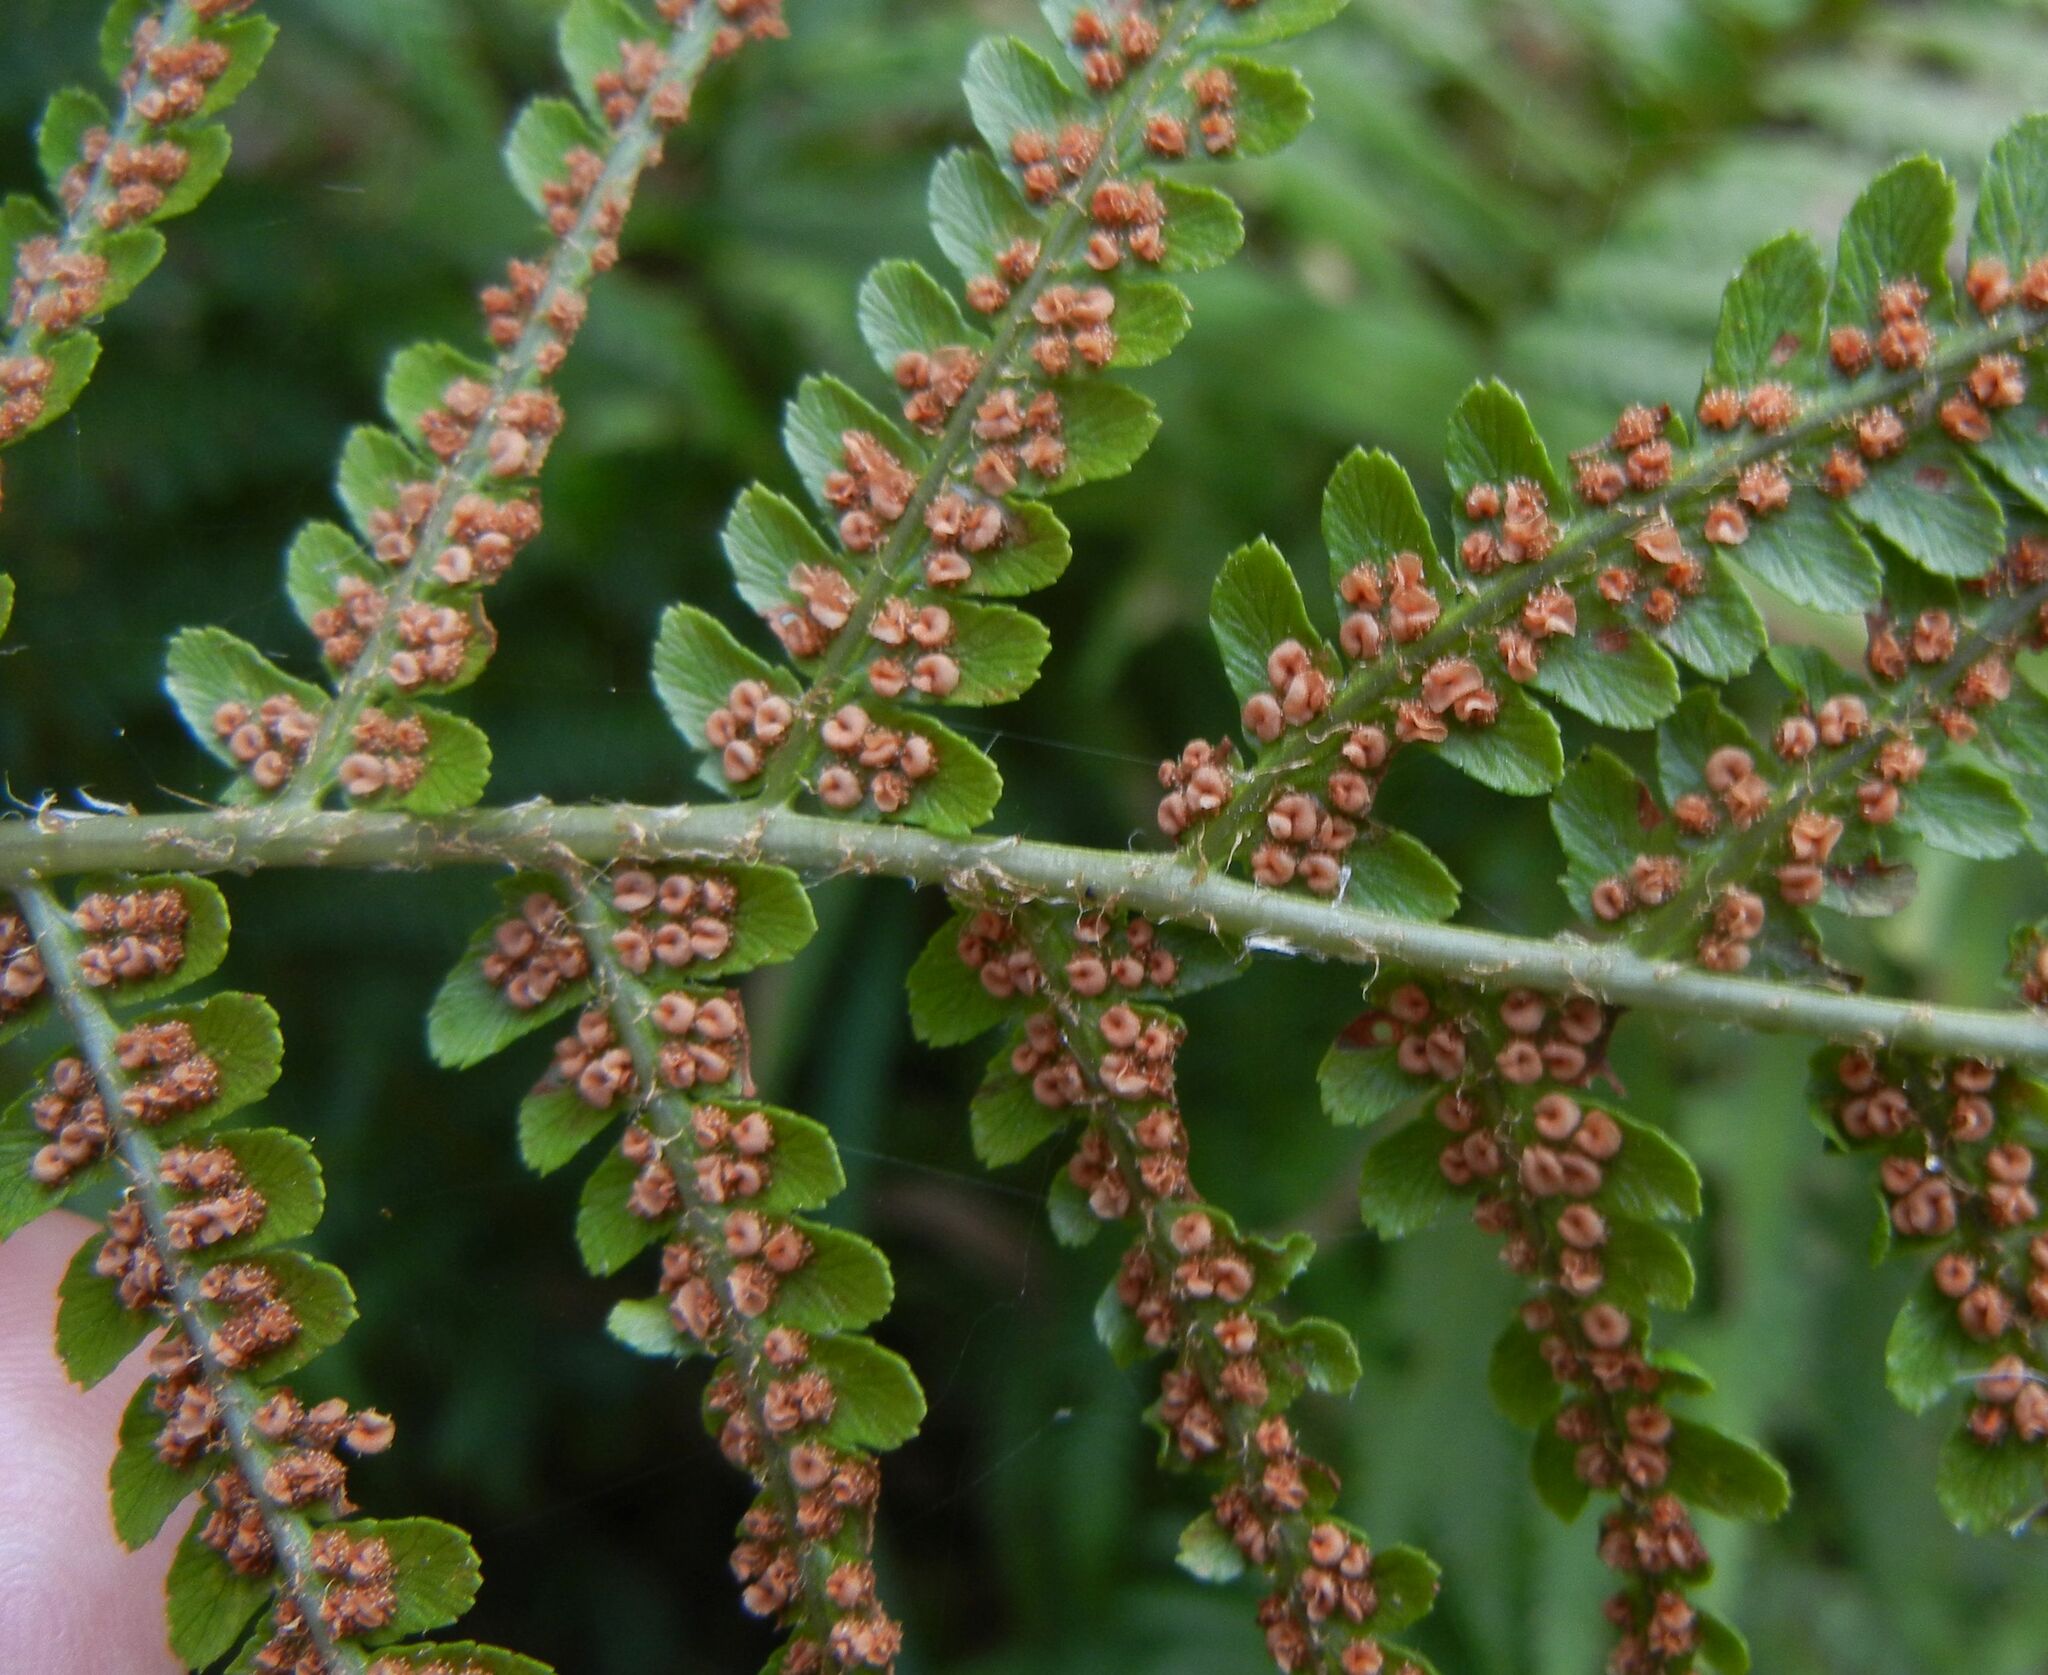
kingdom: Plantae
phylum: Tracheophyta
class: Polypodiopsida
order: Polypodiales
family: Dryopteridaceae
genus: Dryopteris
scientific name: Dryopteris filix-mas
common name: Male fern
